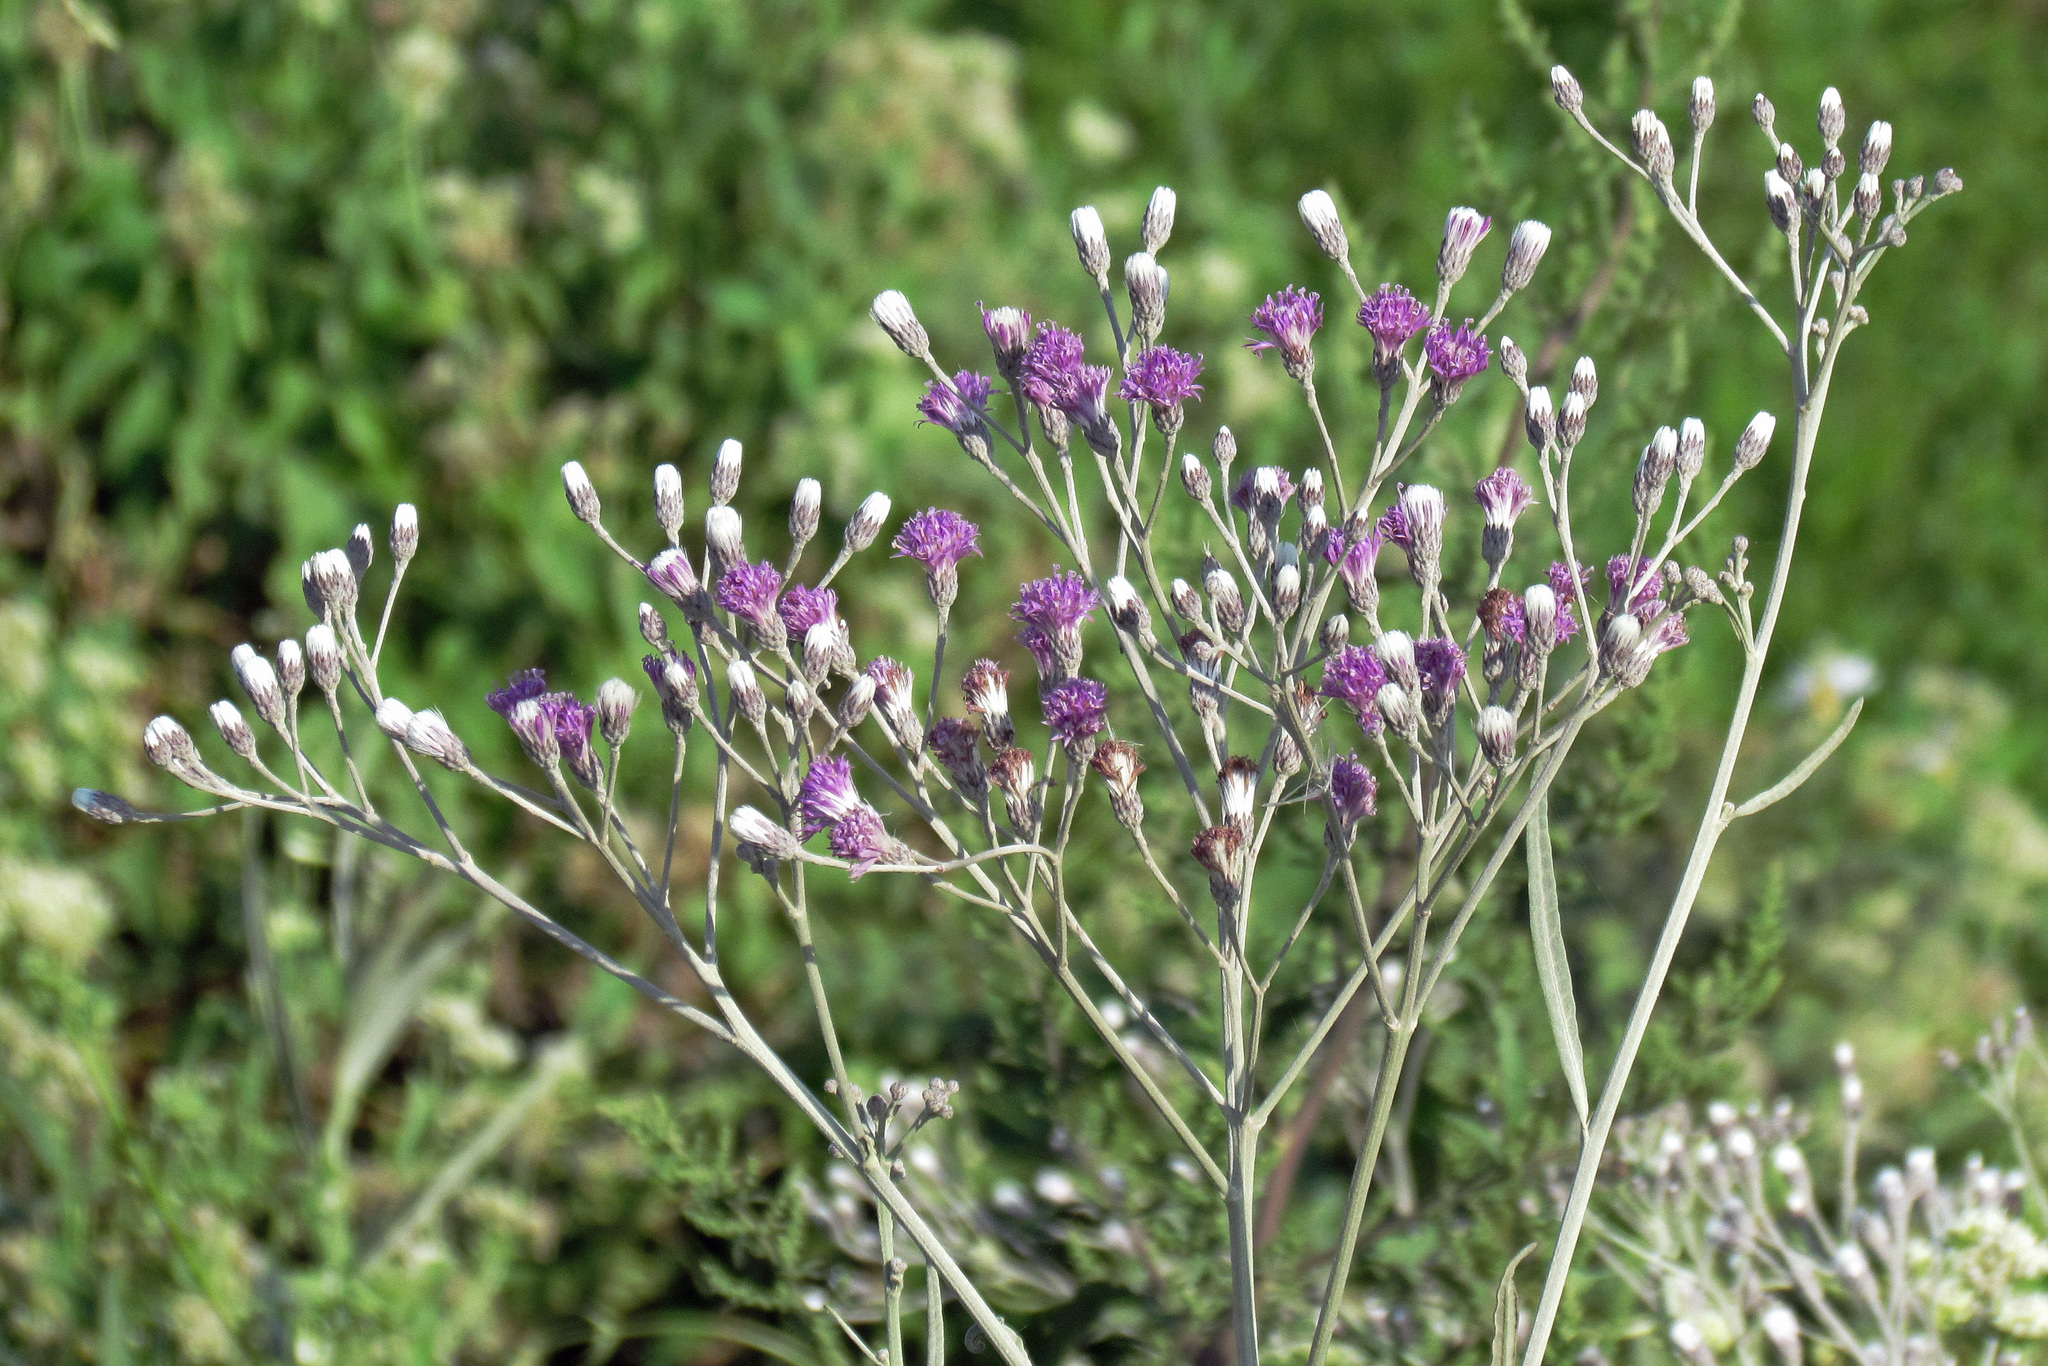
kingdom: Plantae
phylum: Tracheophyta
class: Magnoliopsida
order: Asterales
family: Asteraceae
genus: Vernonia
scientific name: Vernonia incana
